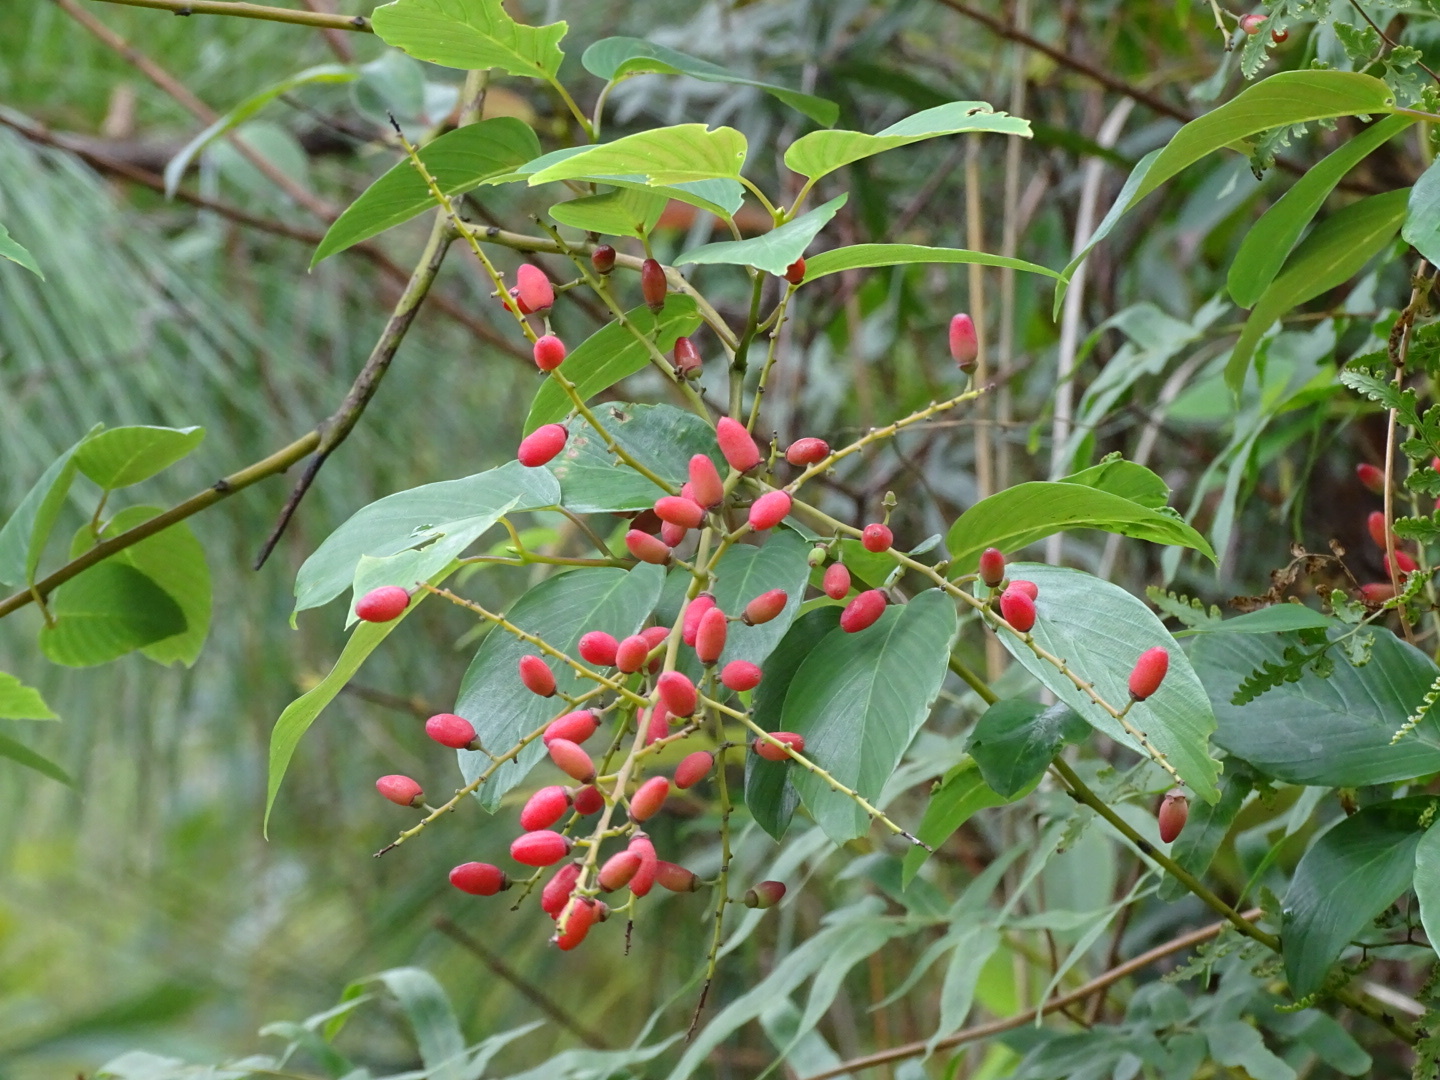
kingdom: Plantae
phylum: Tracheophyta
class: Magnoliopsida
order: Rosales
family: Rhamnaceae
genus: Berchemia
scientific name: Berchemia floribunda
